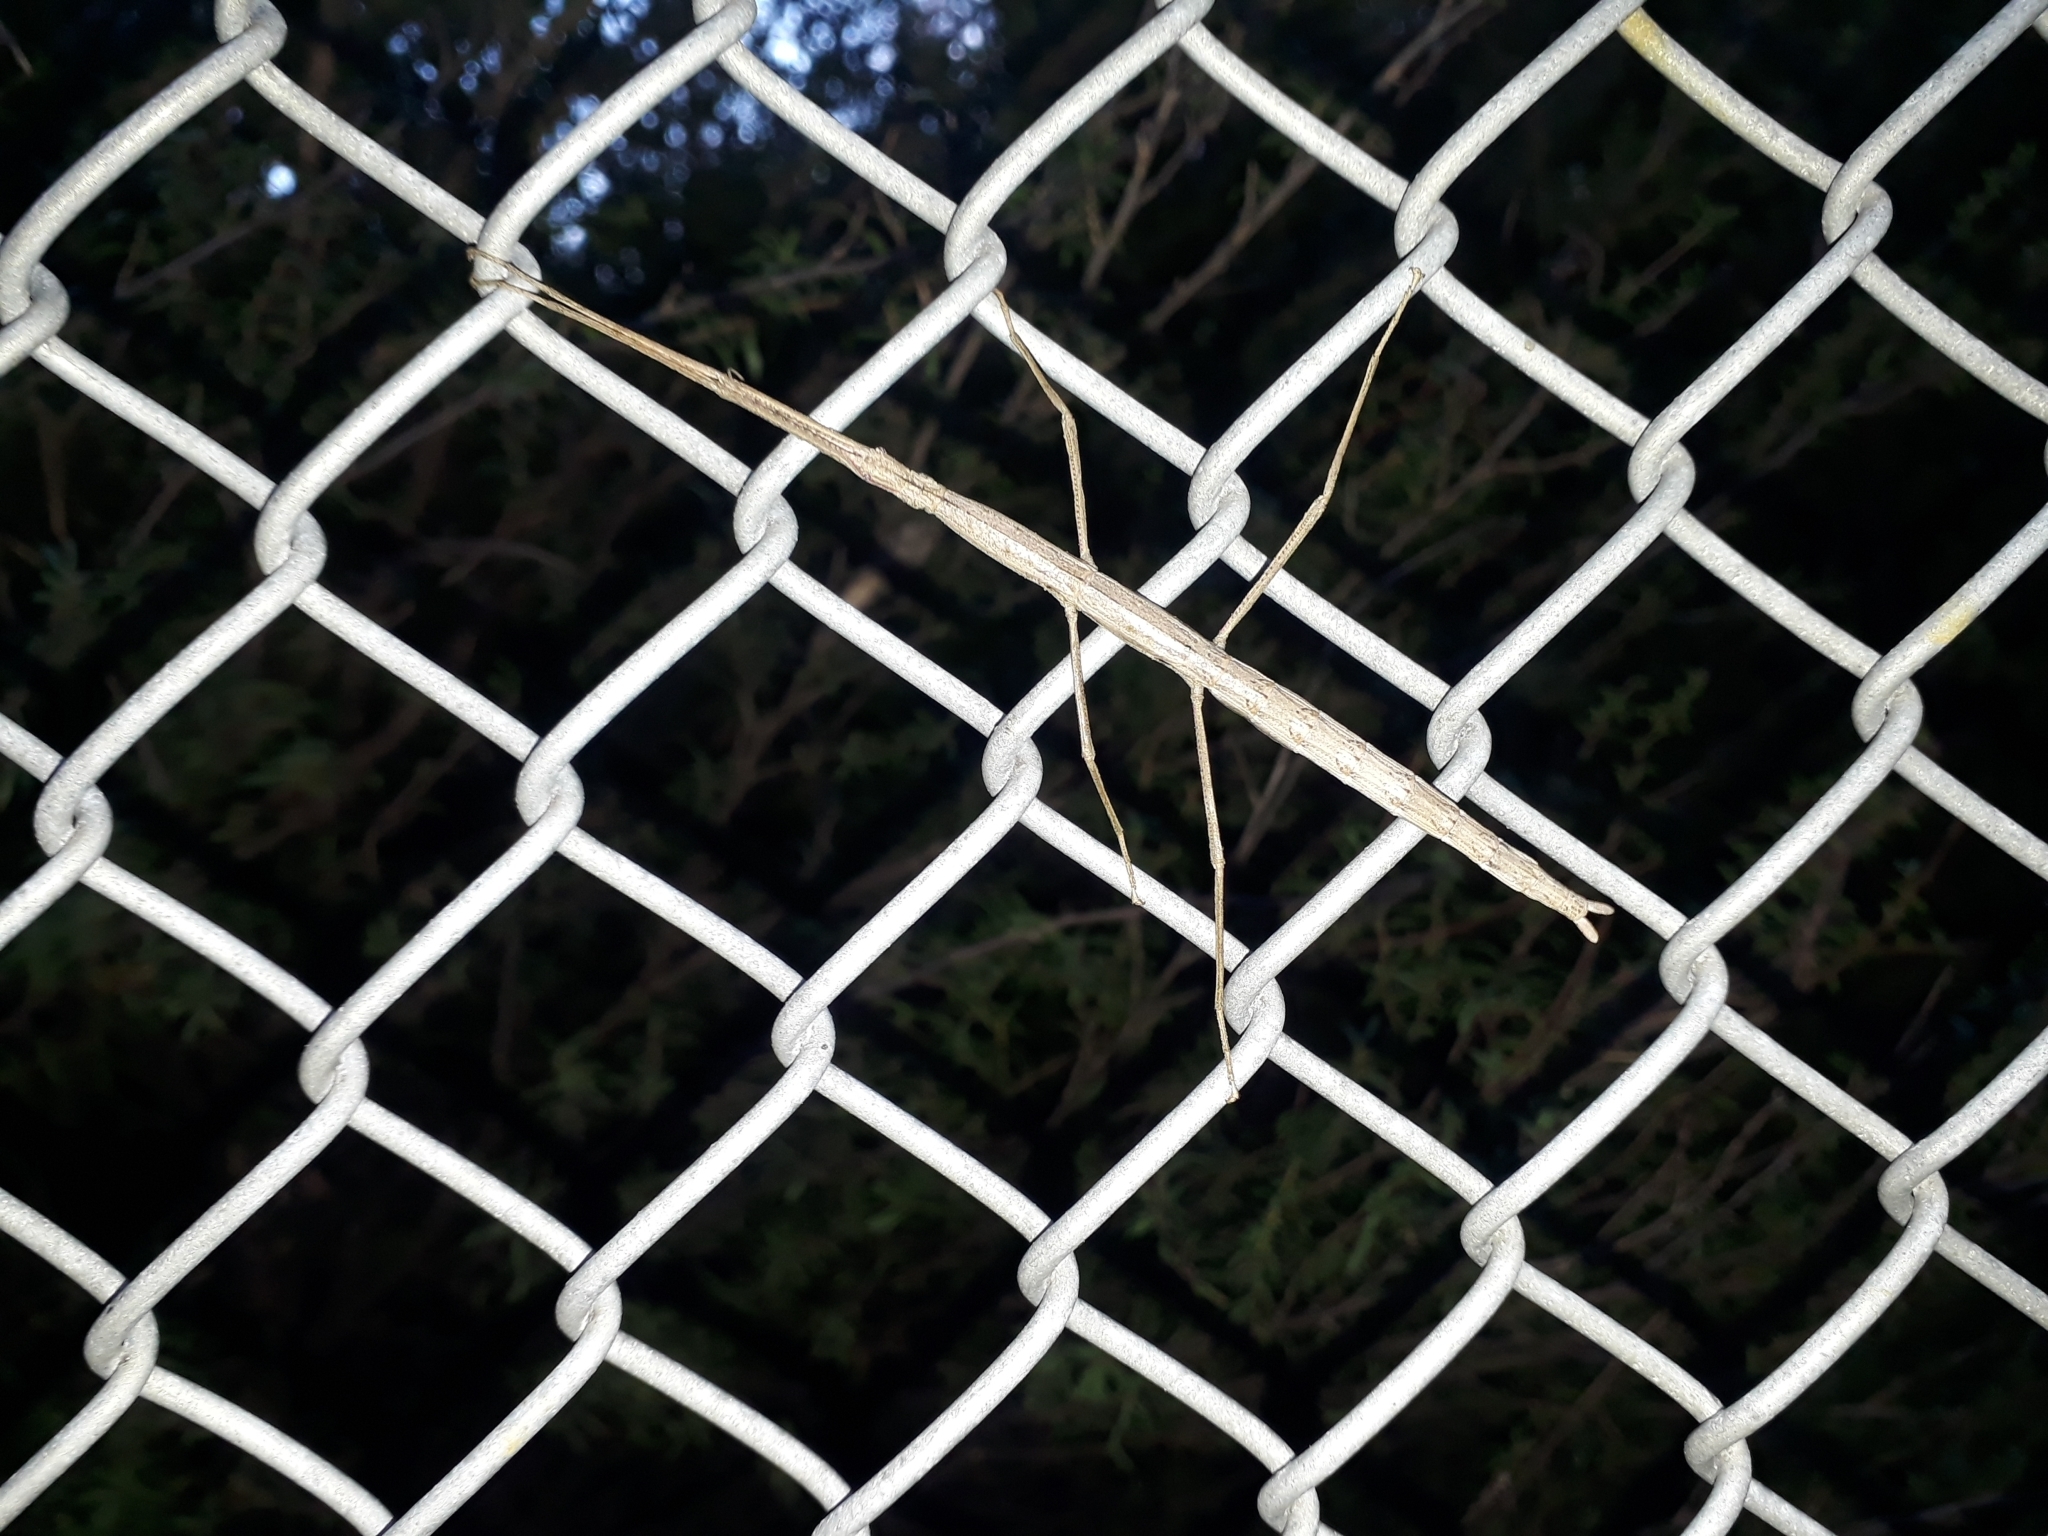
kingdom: Animalia
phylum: Arthropoda
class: Insecta
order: Phasmida
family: Phasmatidae
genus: Clitarchus
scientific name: Clitarchus hookeri
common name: Smooth stick insect
